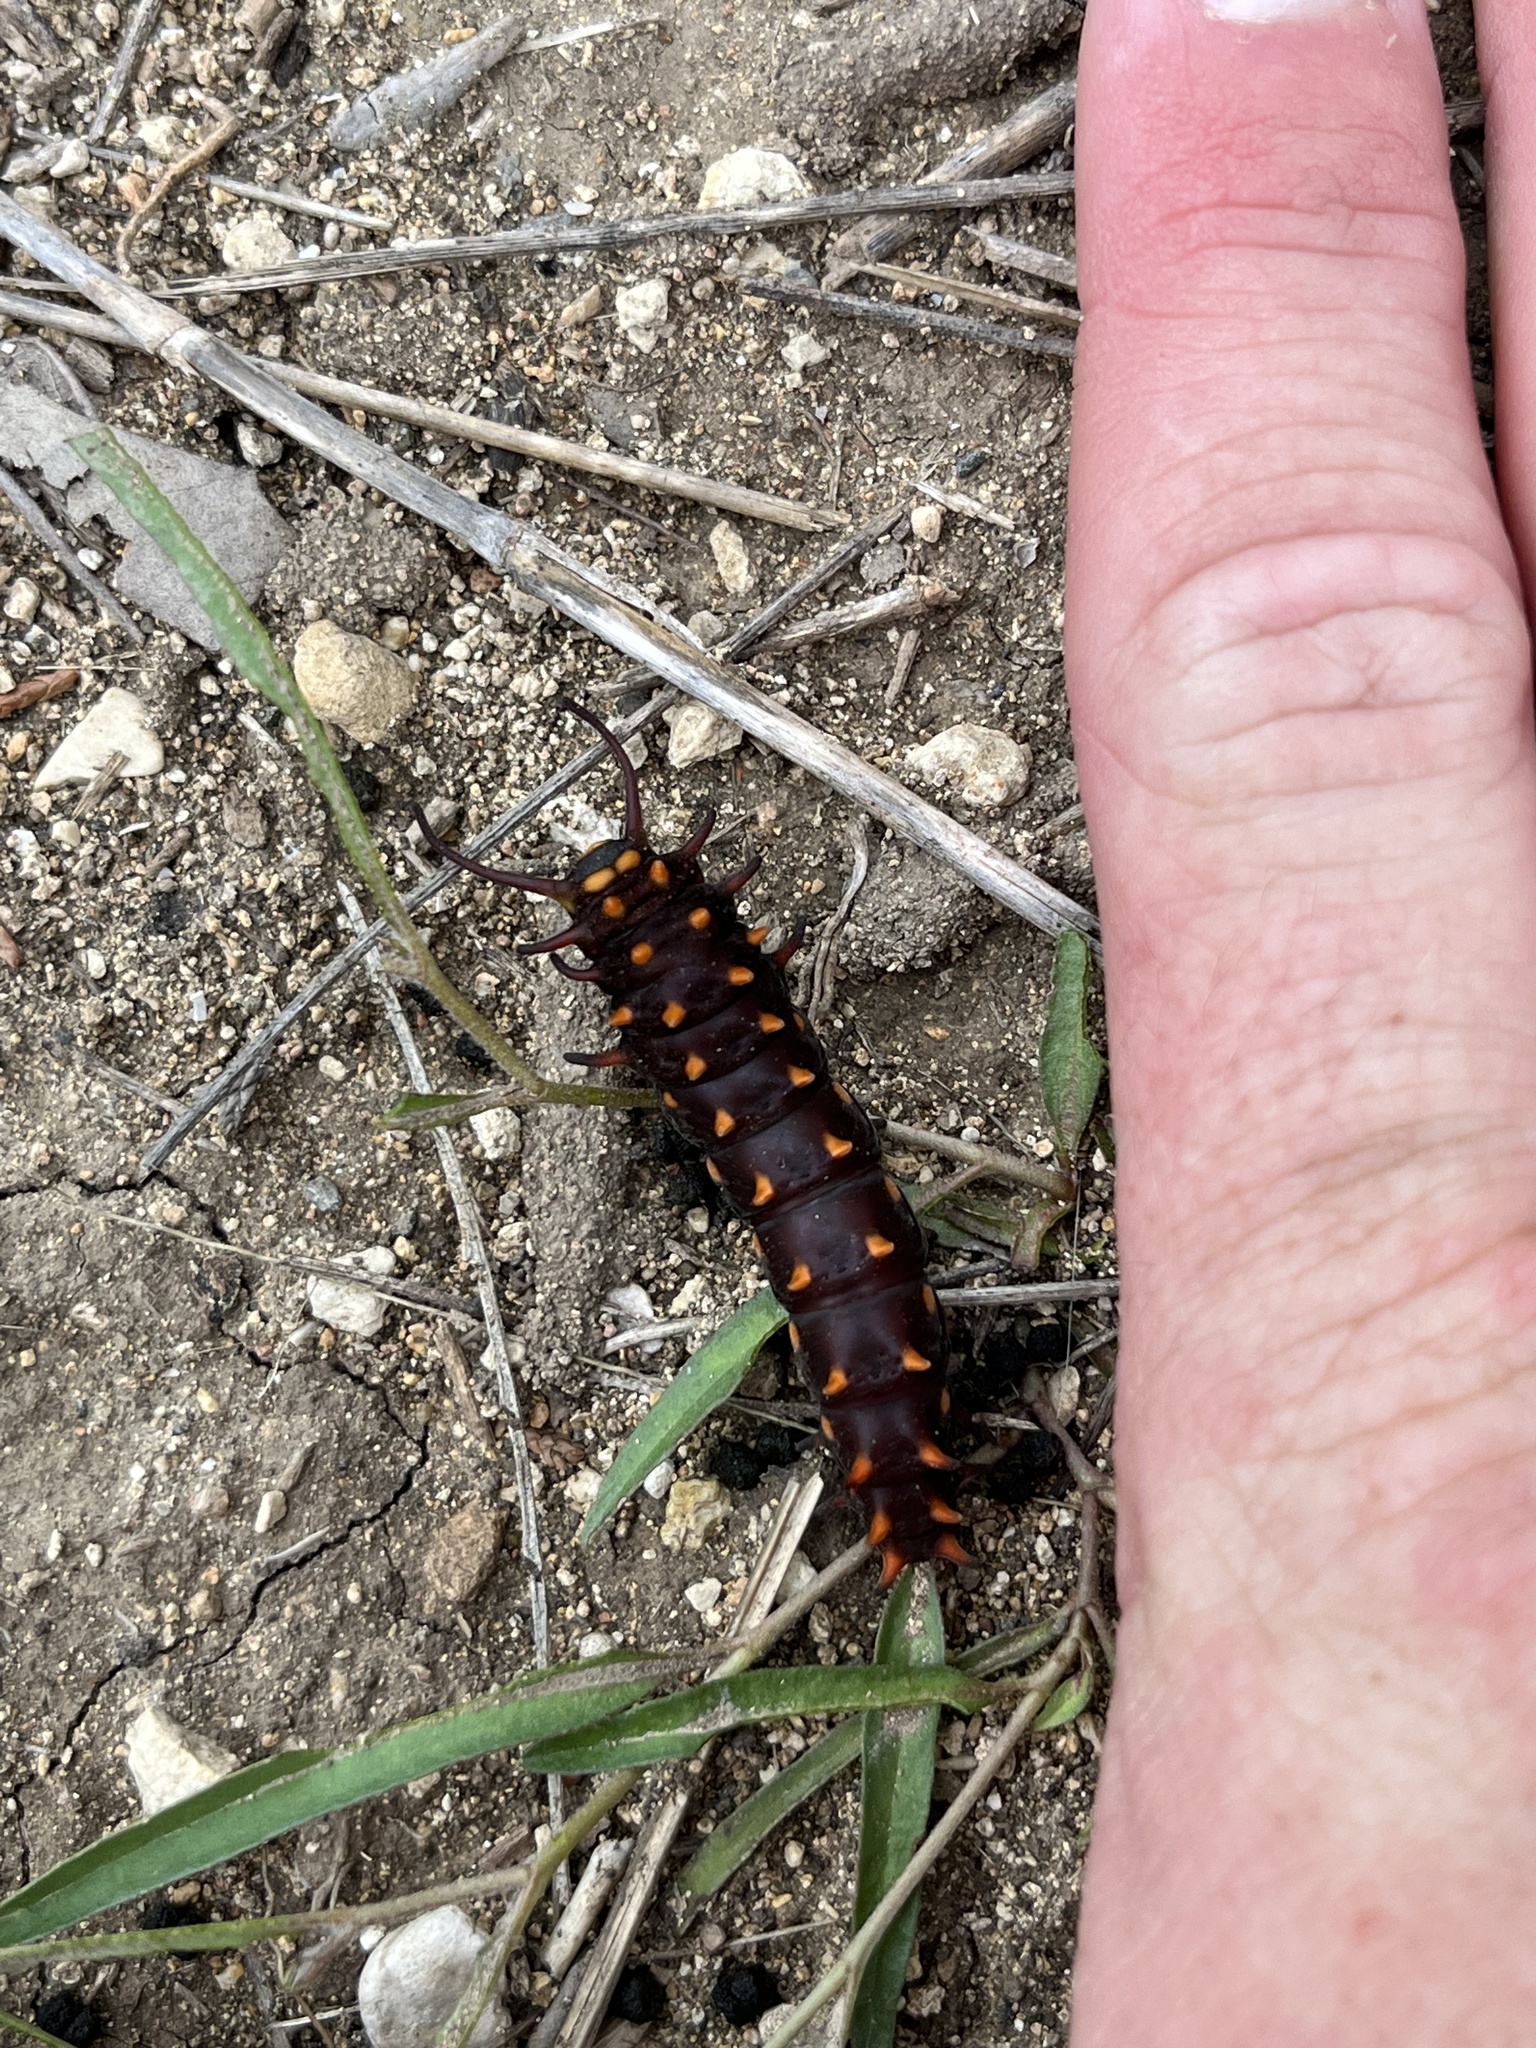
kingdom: Animalia
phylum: Arthropoda
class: Insecta
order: Lepidoptera
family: Papilionidae
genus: Battus
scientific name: Battus philenor
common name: Pipevine swallowtail
